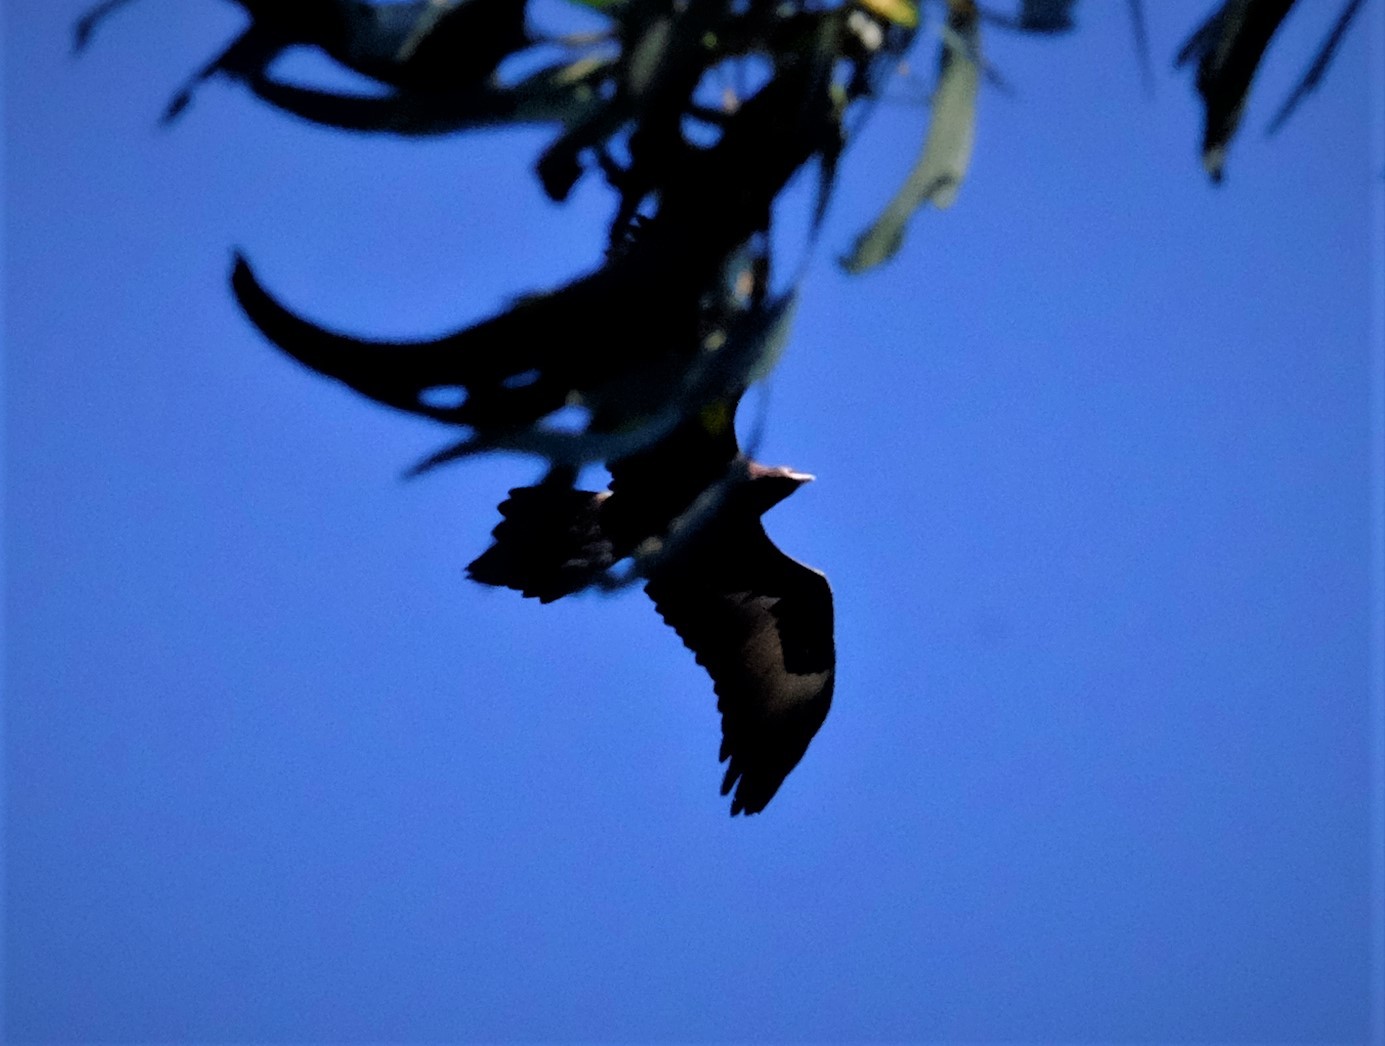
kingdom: Animalia
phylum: Chordata
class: Aves
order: Accipitriformes
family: Accipitridae
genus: Aquila
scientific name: Aquila audax
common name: Wedge-tailed eagle
